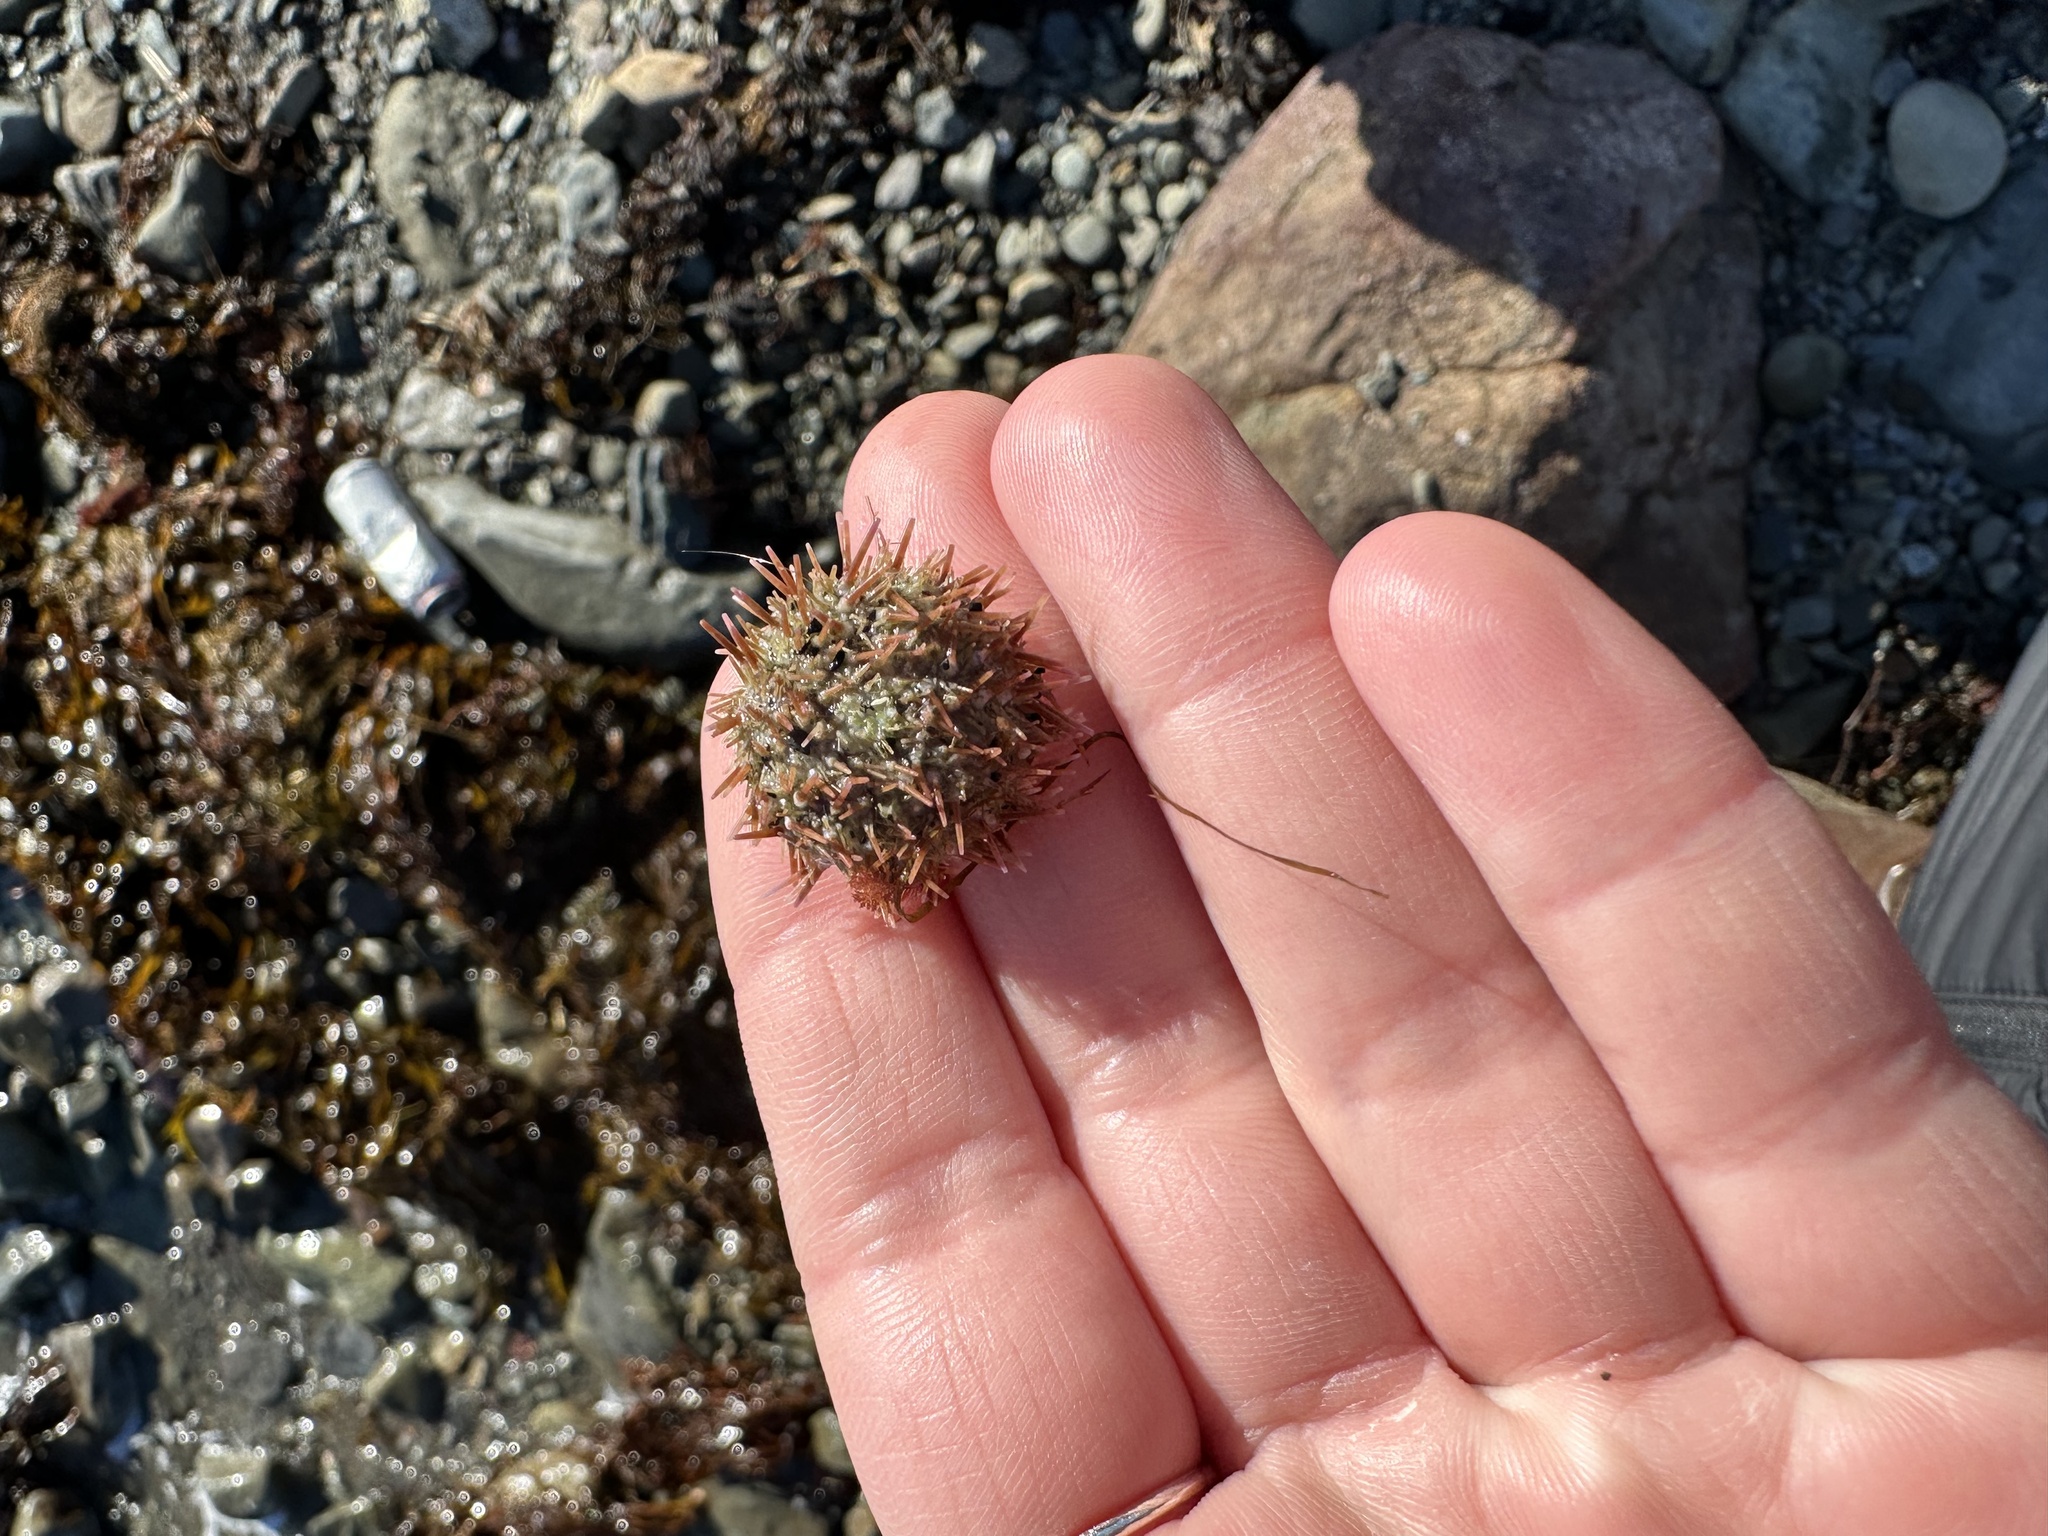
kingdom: Animalia
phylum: Echinodermata
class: Echinoidea
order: Camarodonta
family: Strongylocentrotidae
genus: Strongylocentrotus
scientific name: Strongylocentrotus droebachiensis
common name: Northern sea urchin
